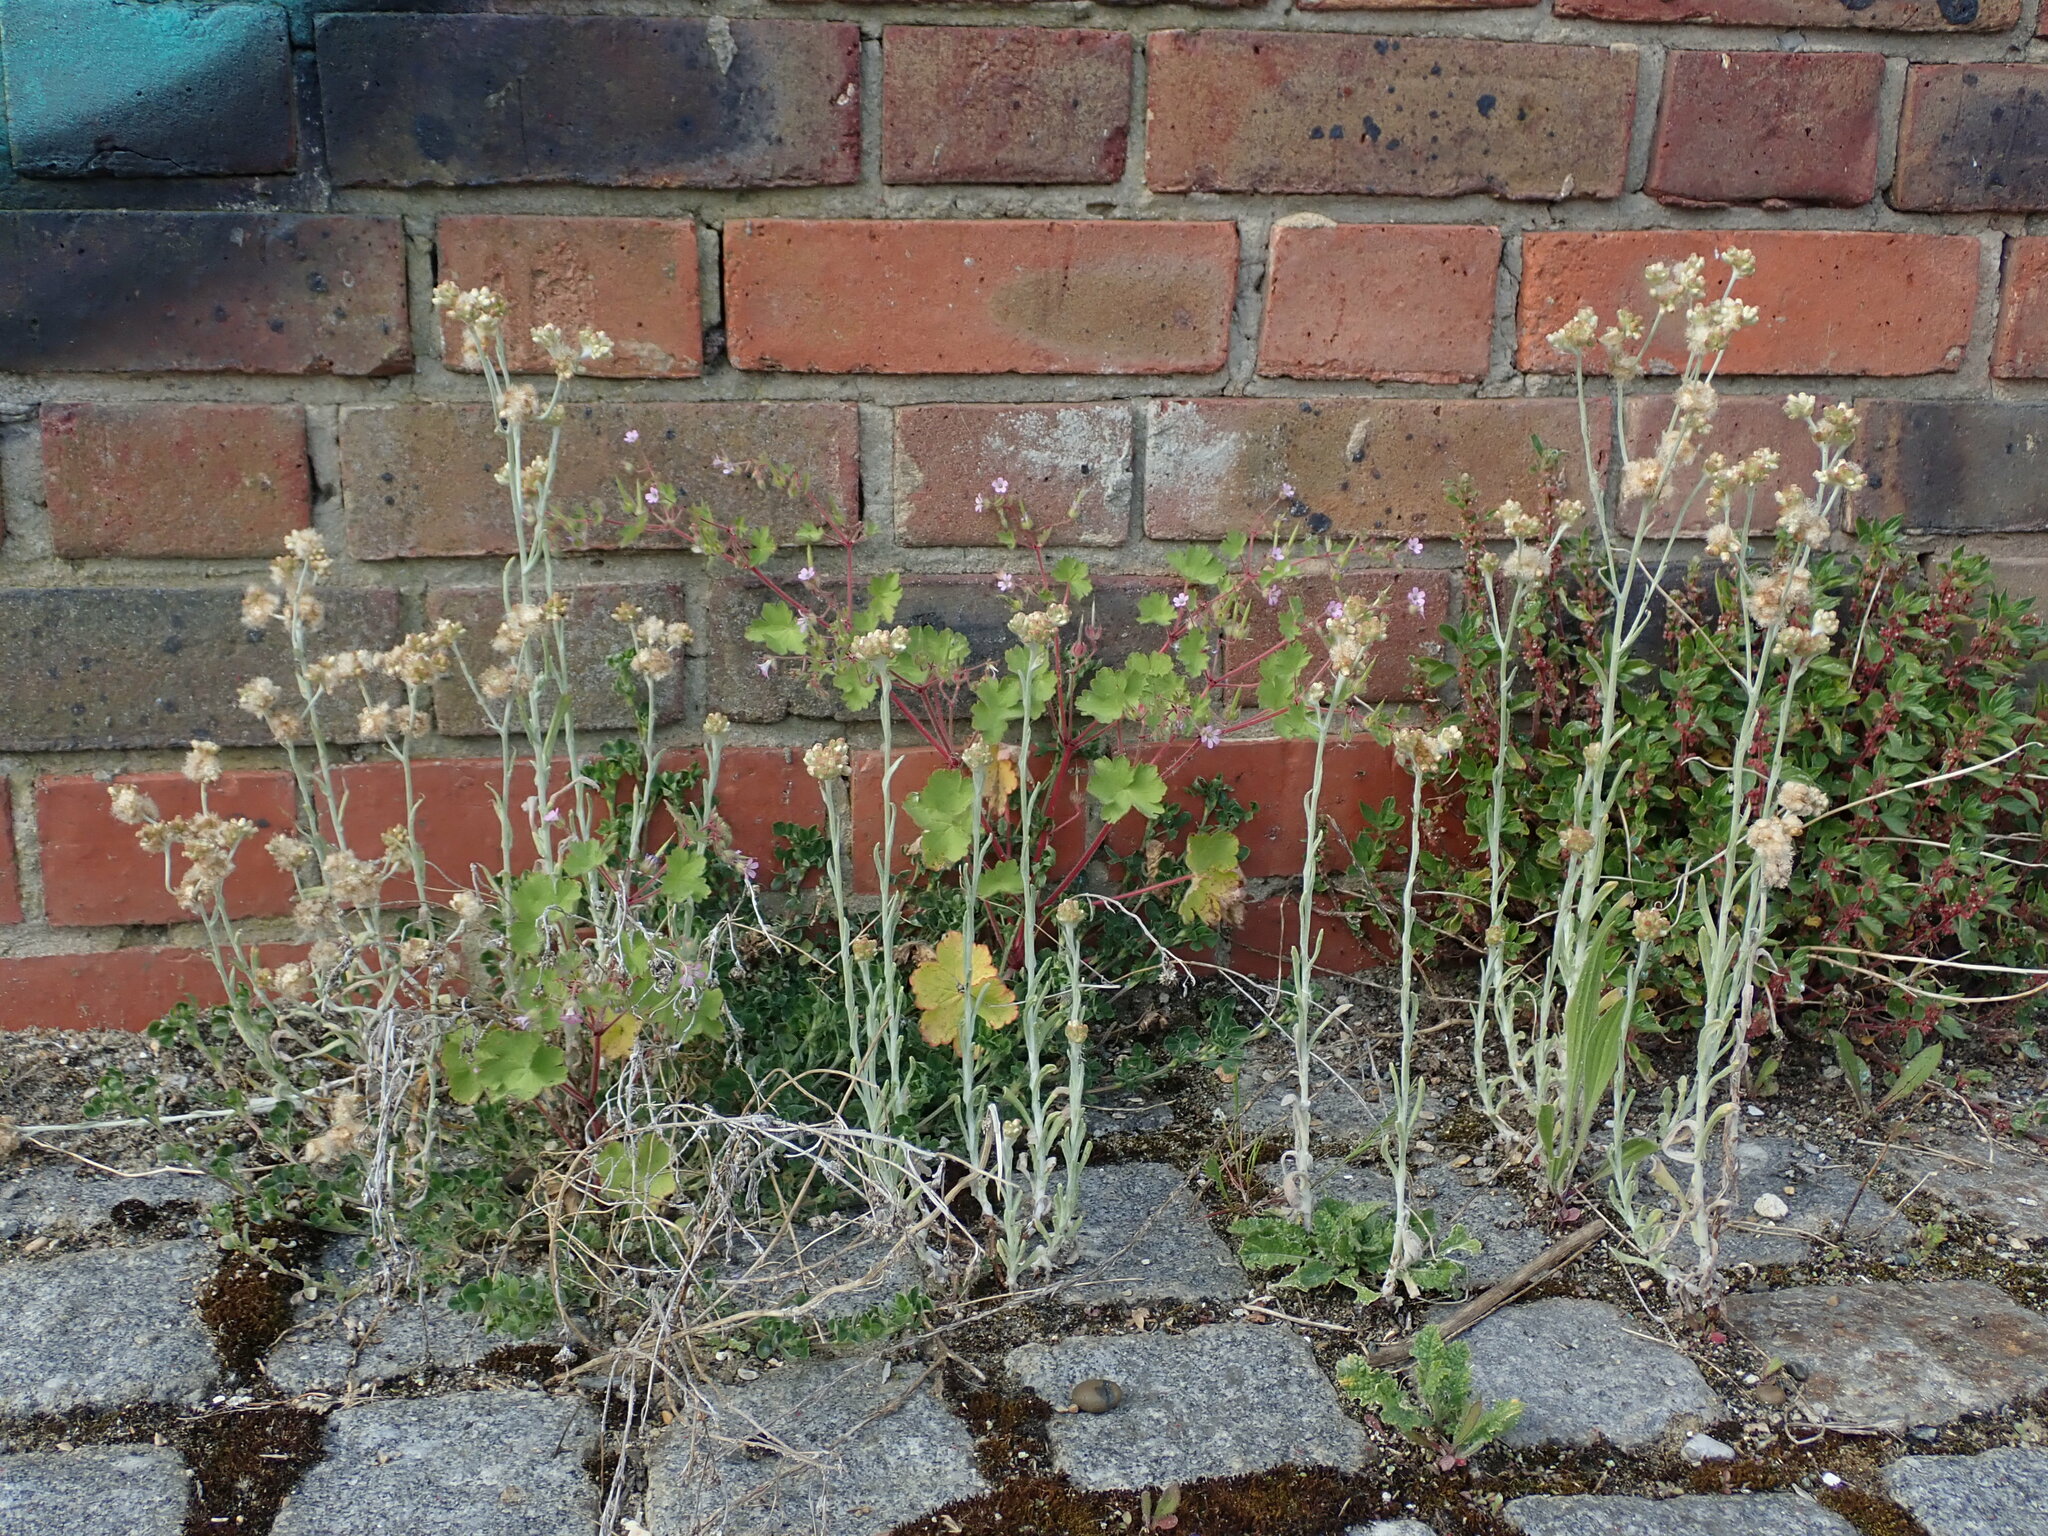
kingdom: Plantae
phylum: Tracheophyta
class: Magnoliopsida
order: Asterales
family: Asteraceae
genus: Helichrysum
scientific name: Helichrysum luteoalbum
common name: Daisy
